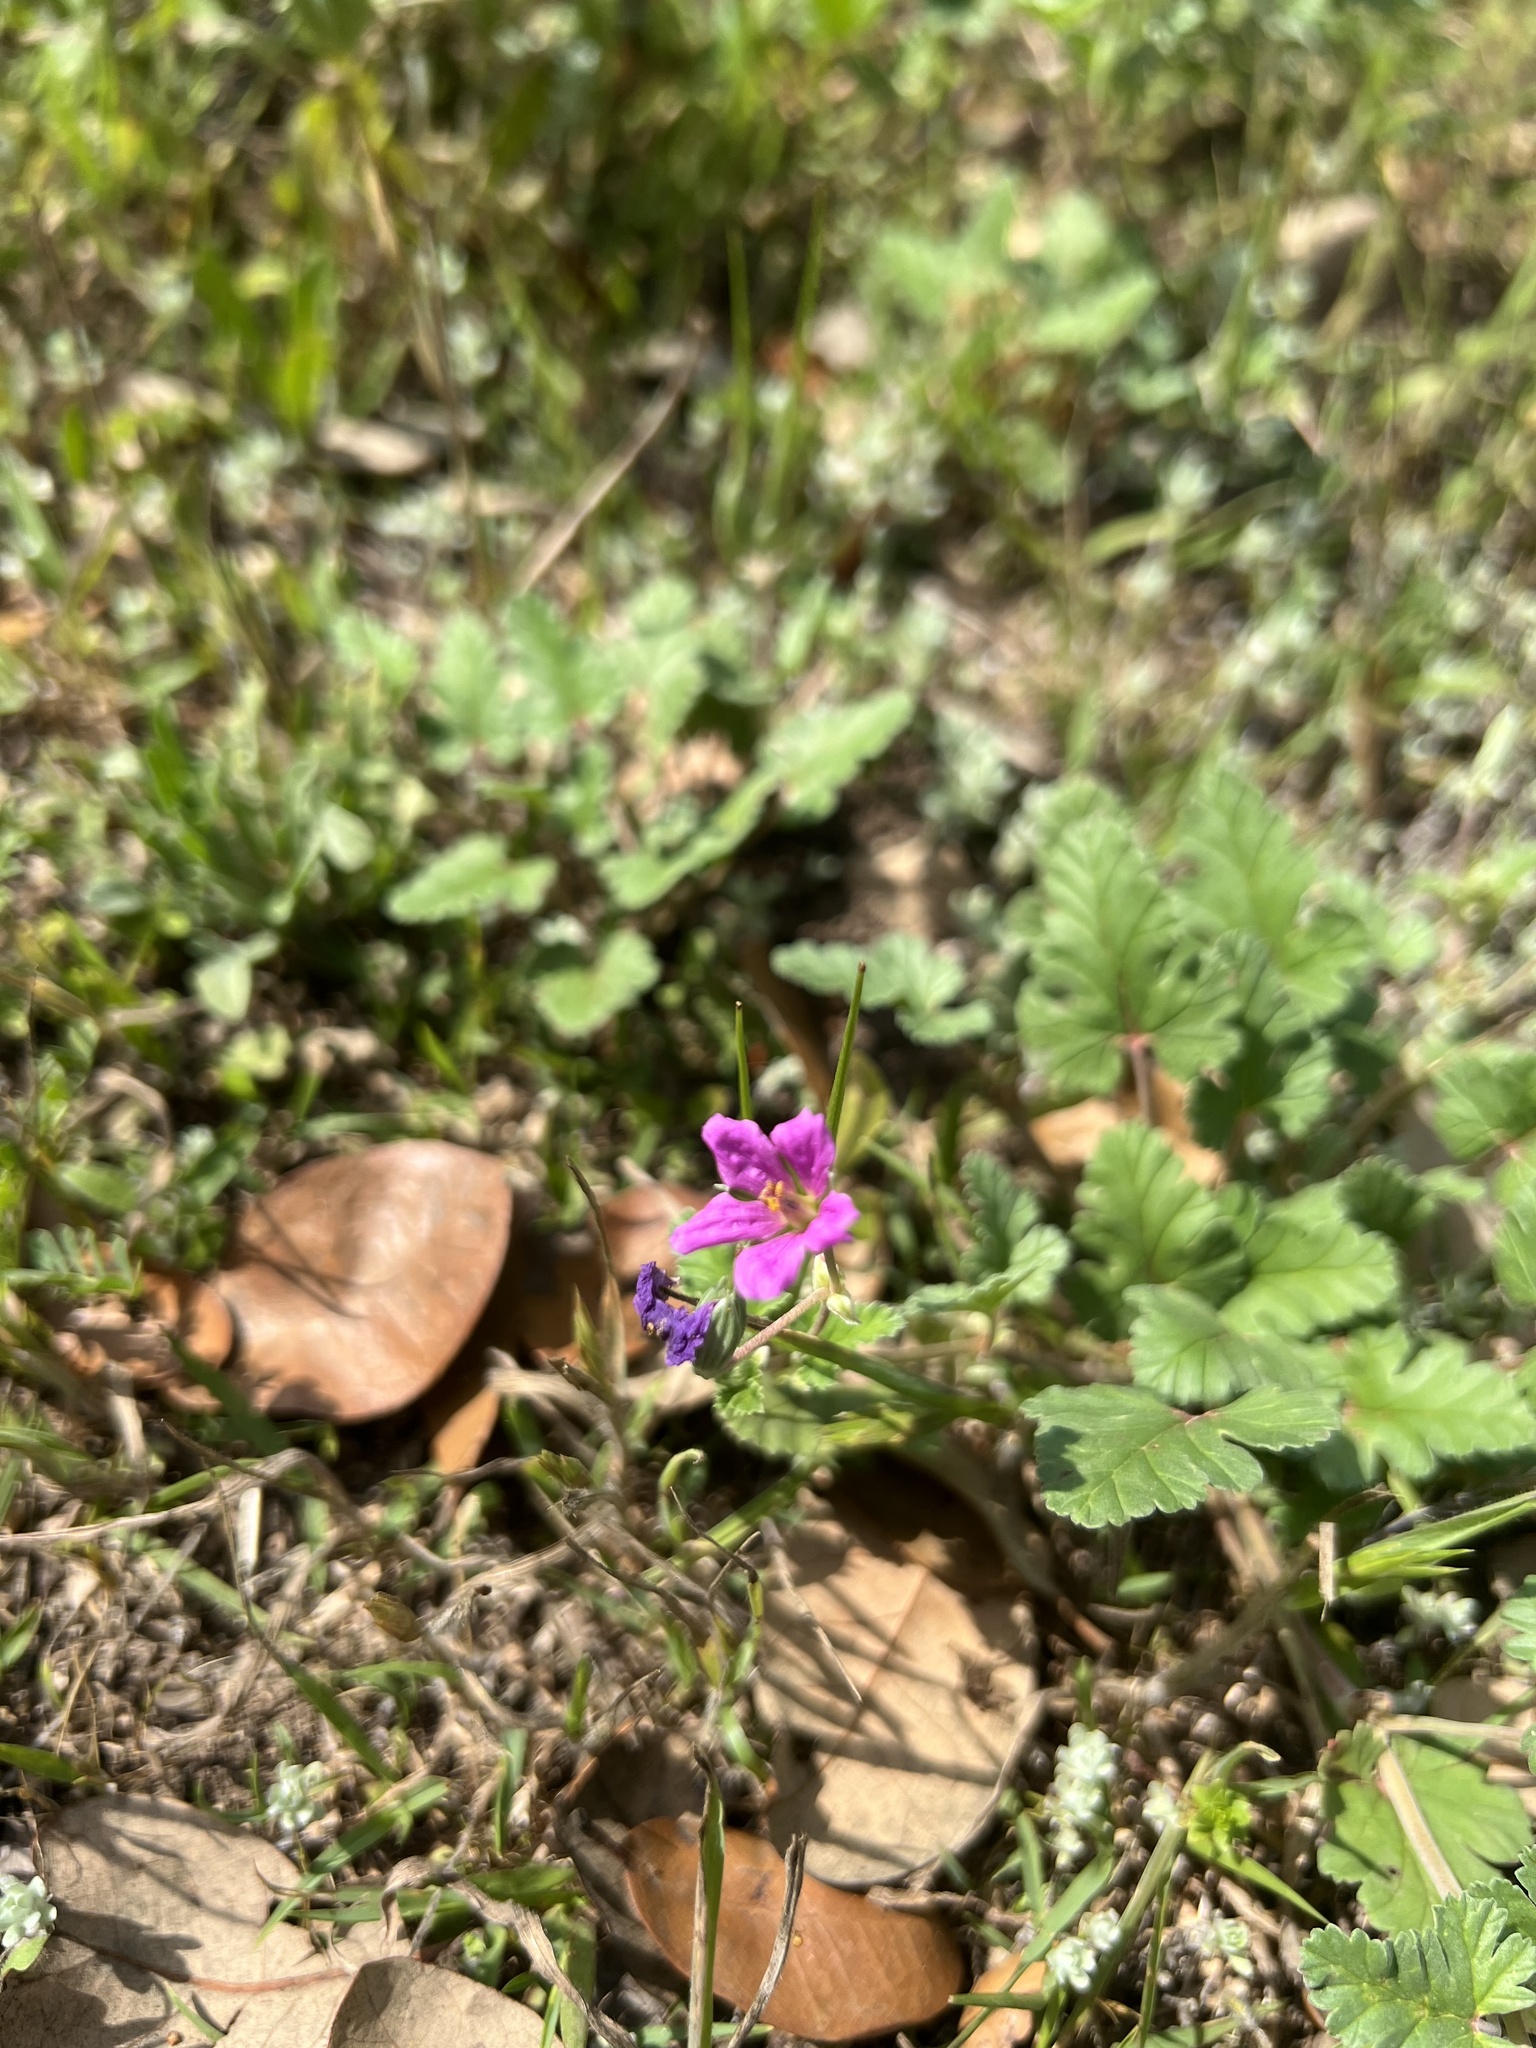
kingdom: Plantae
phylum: Tracheophyta
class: Magnoliopsida
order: Geraniales
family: Geraniaceae
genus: Erodium
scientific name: Erodium texanum
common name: Texas stork's-bill
